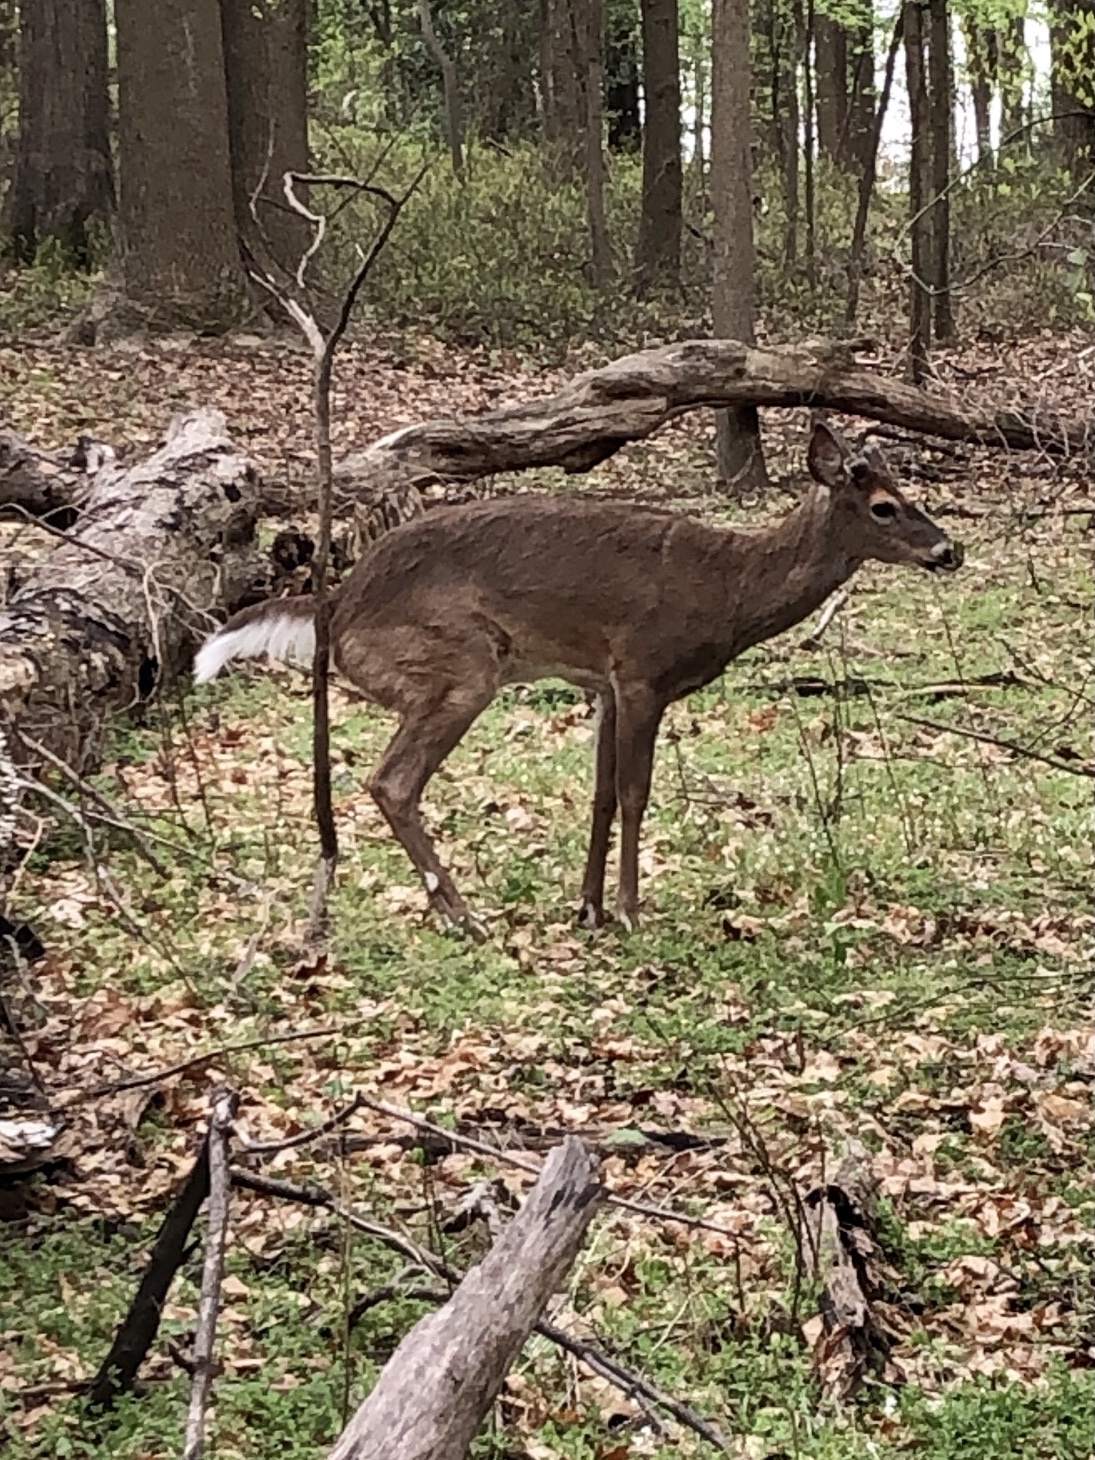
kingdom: Animalia
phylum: Chordata
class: Mammalia
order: Artiodactyla
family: Cervidae
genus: Odocoileus
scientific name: Odocoileus virginianus
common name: White-tailed deer
